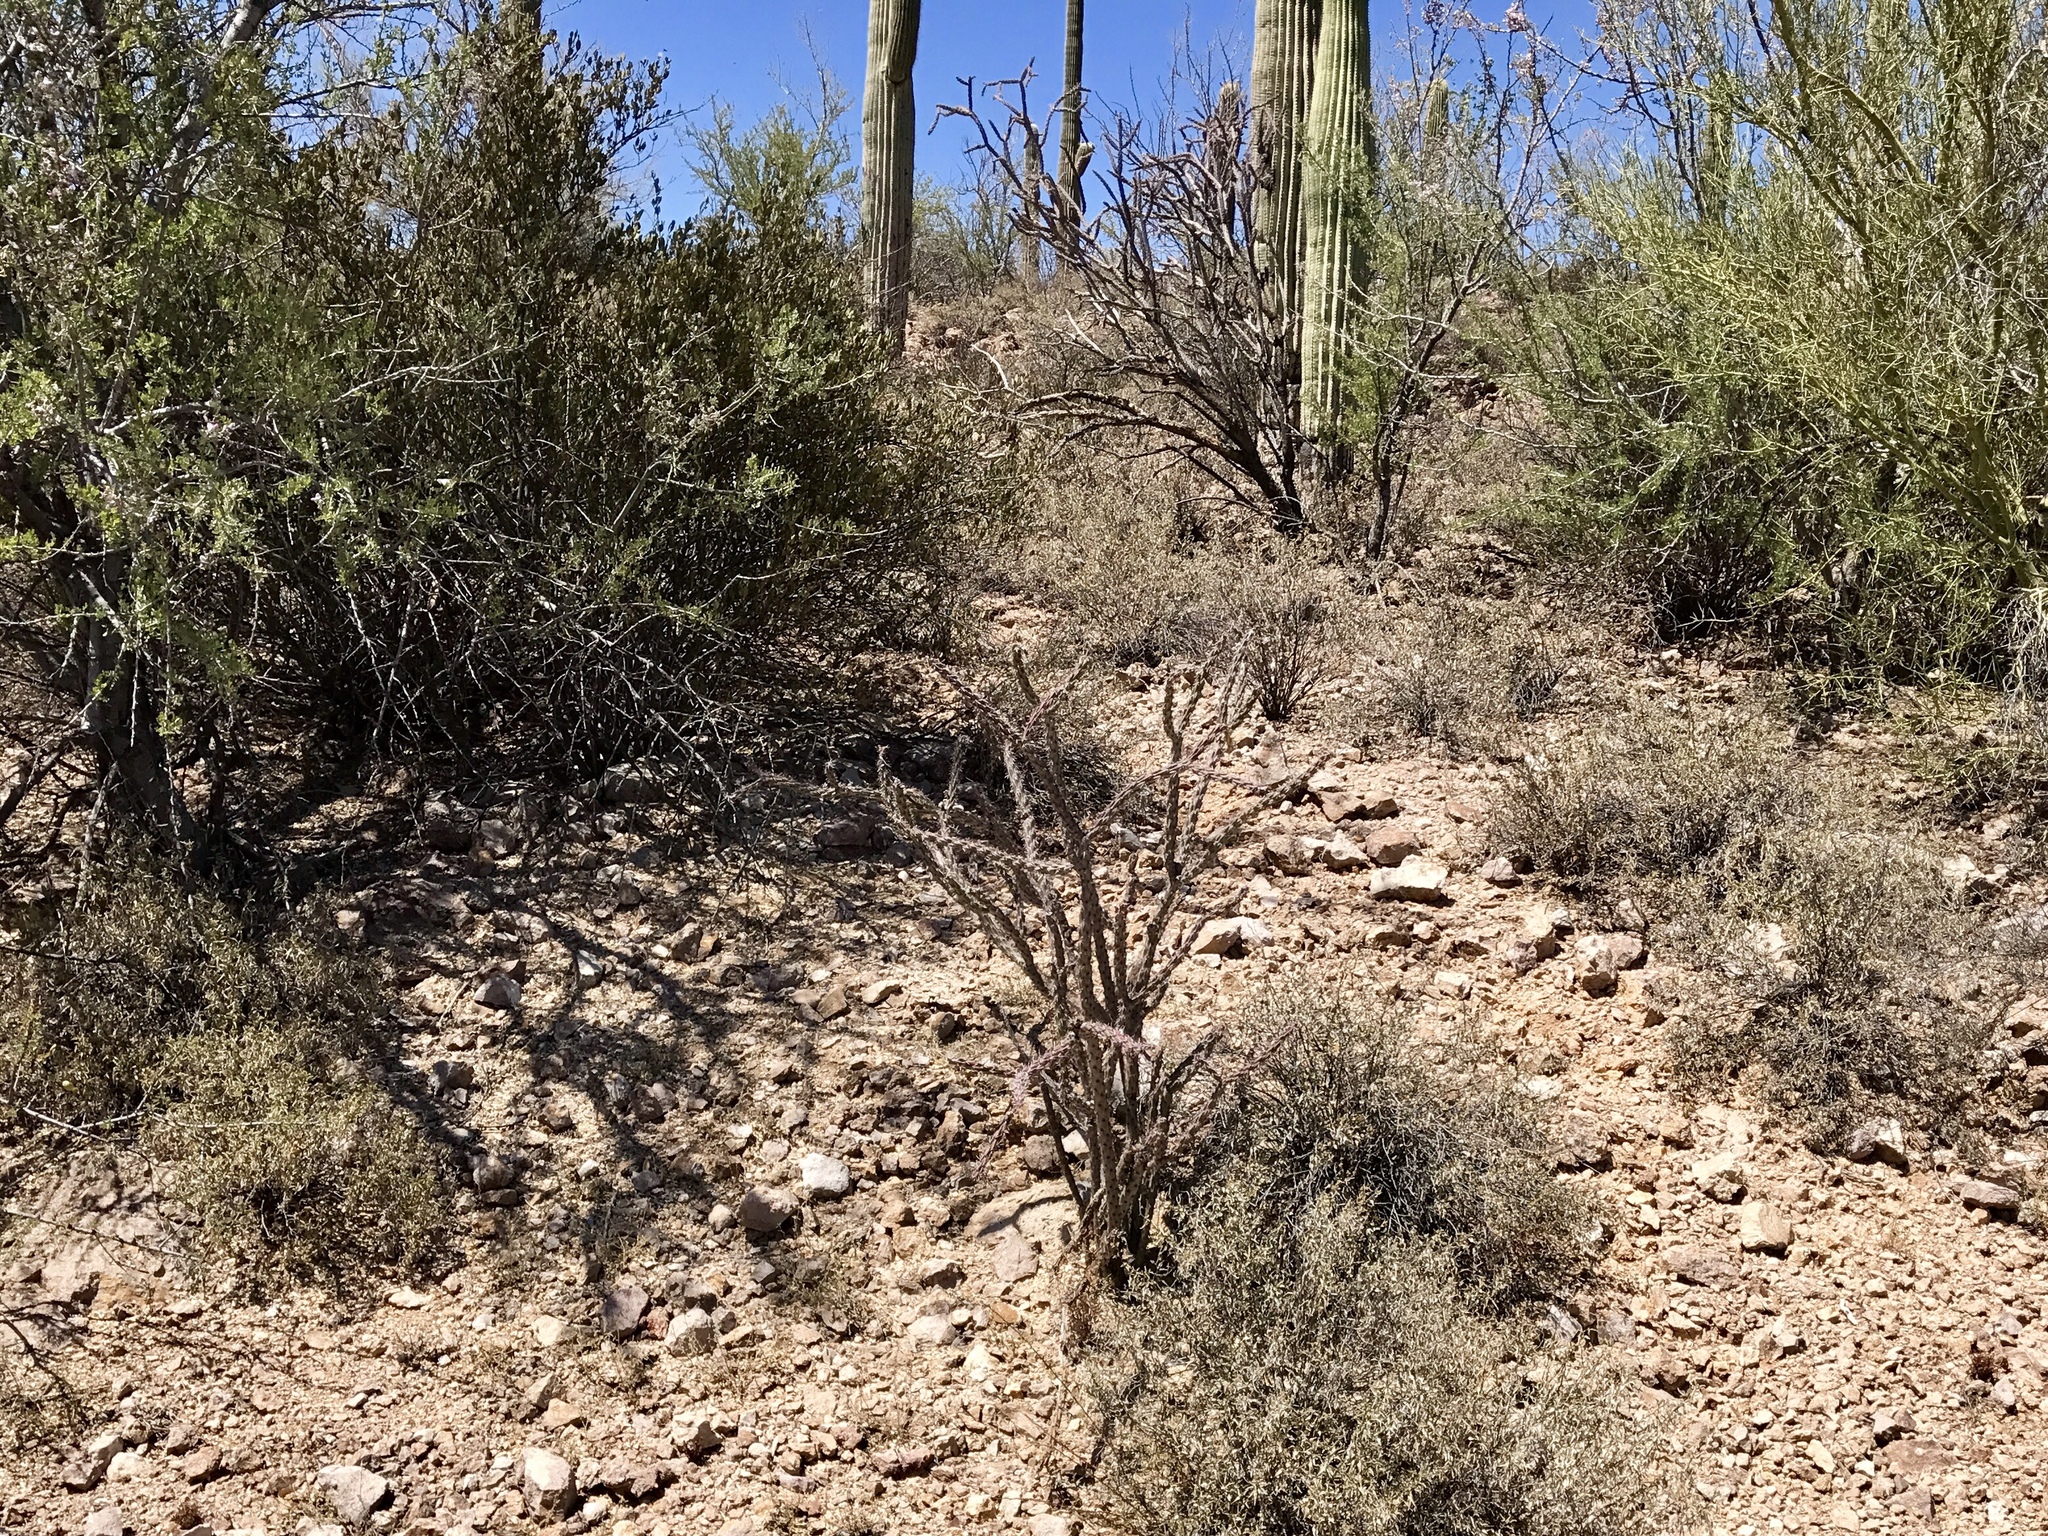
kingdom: Plantae
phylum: Tracheophyta
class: Magnoliopsida
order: Caryophyllales
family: Cactaceae
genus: Cylindropuntia
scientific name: Cylindropuntia imbricata
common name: Candelabrum cactus
